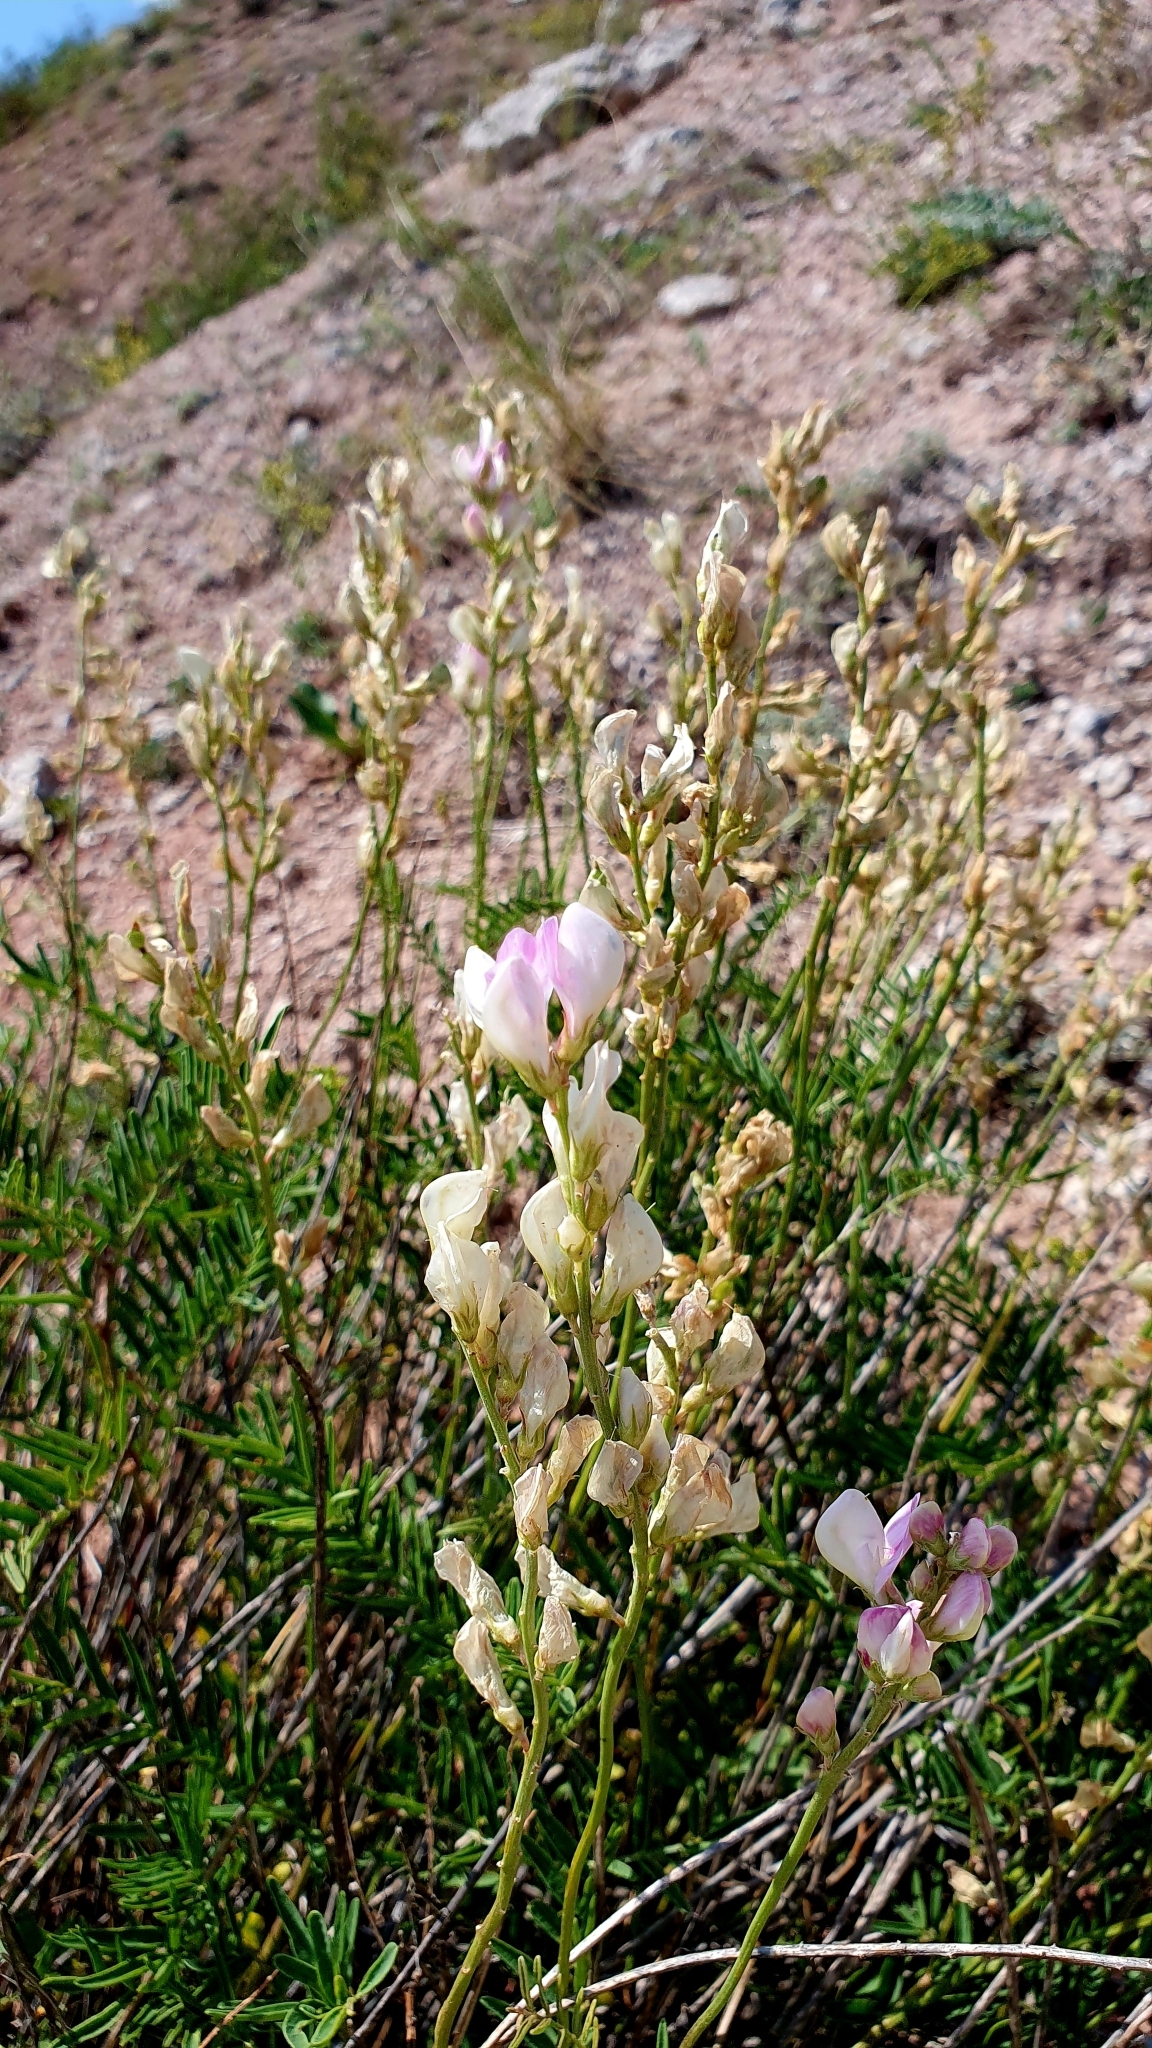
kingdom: Plantae
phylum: Tracheophyta
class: Magnoliopsida
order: Fabales
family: Fabaceae
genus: Hedysarum
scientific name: Hedysarum razoumovianum
